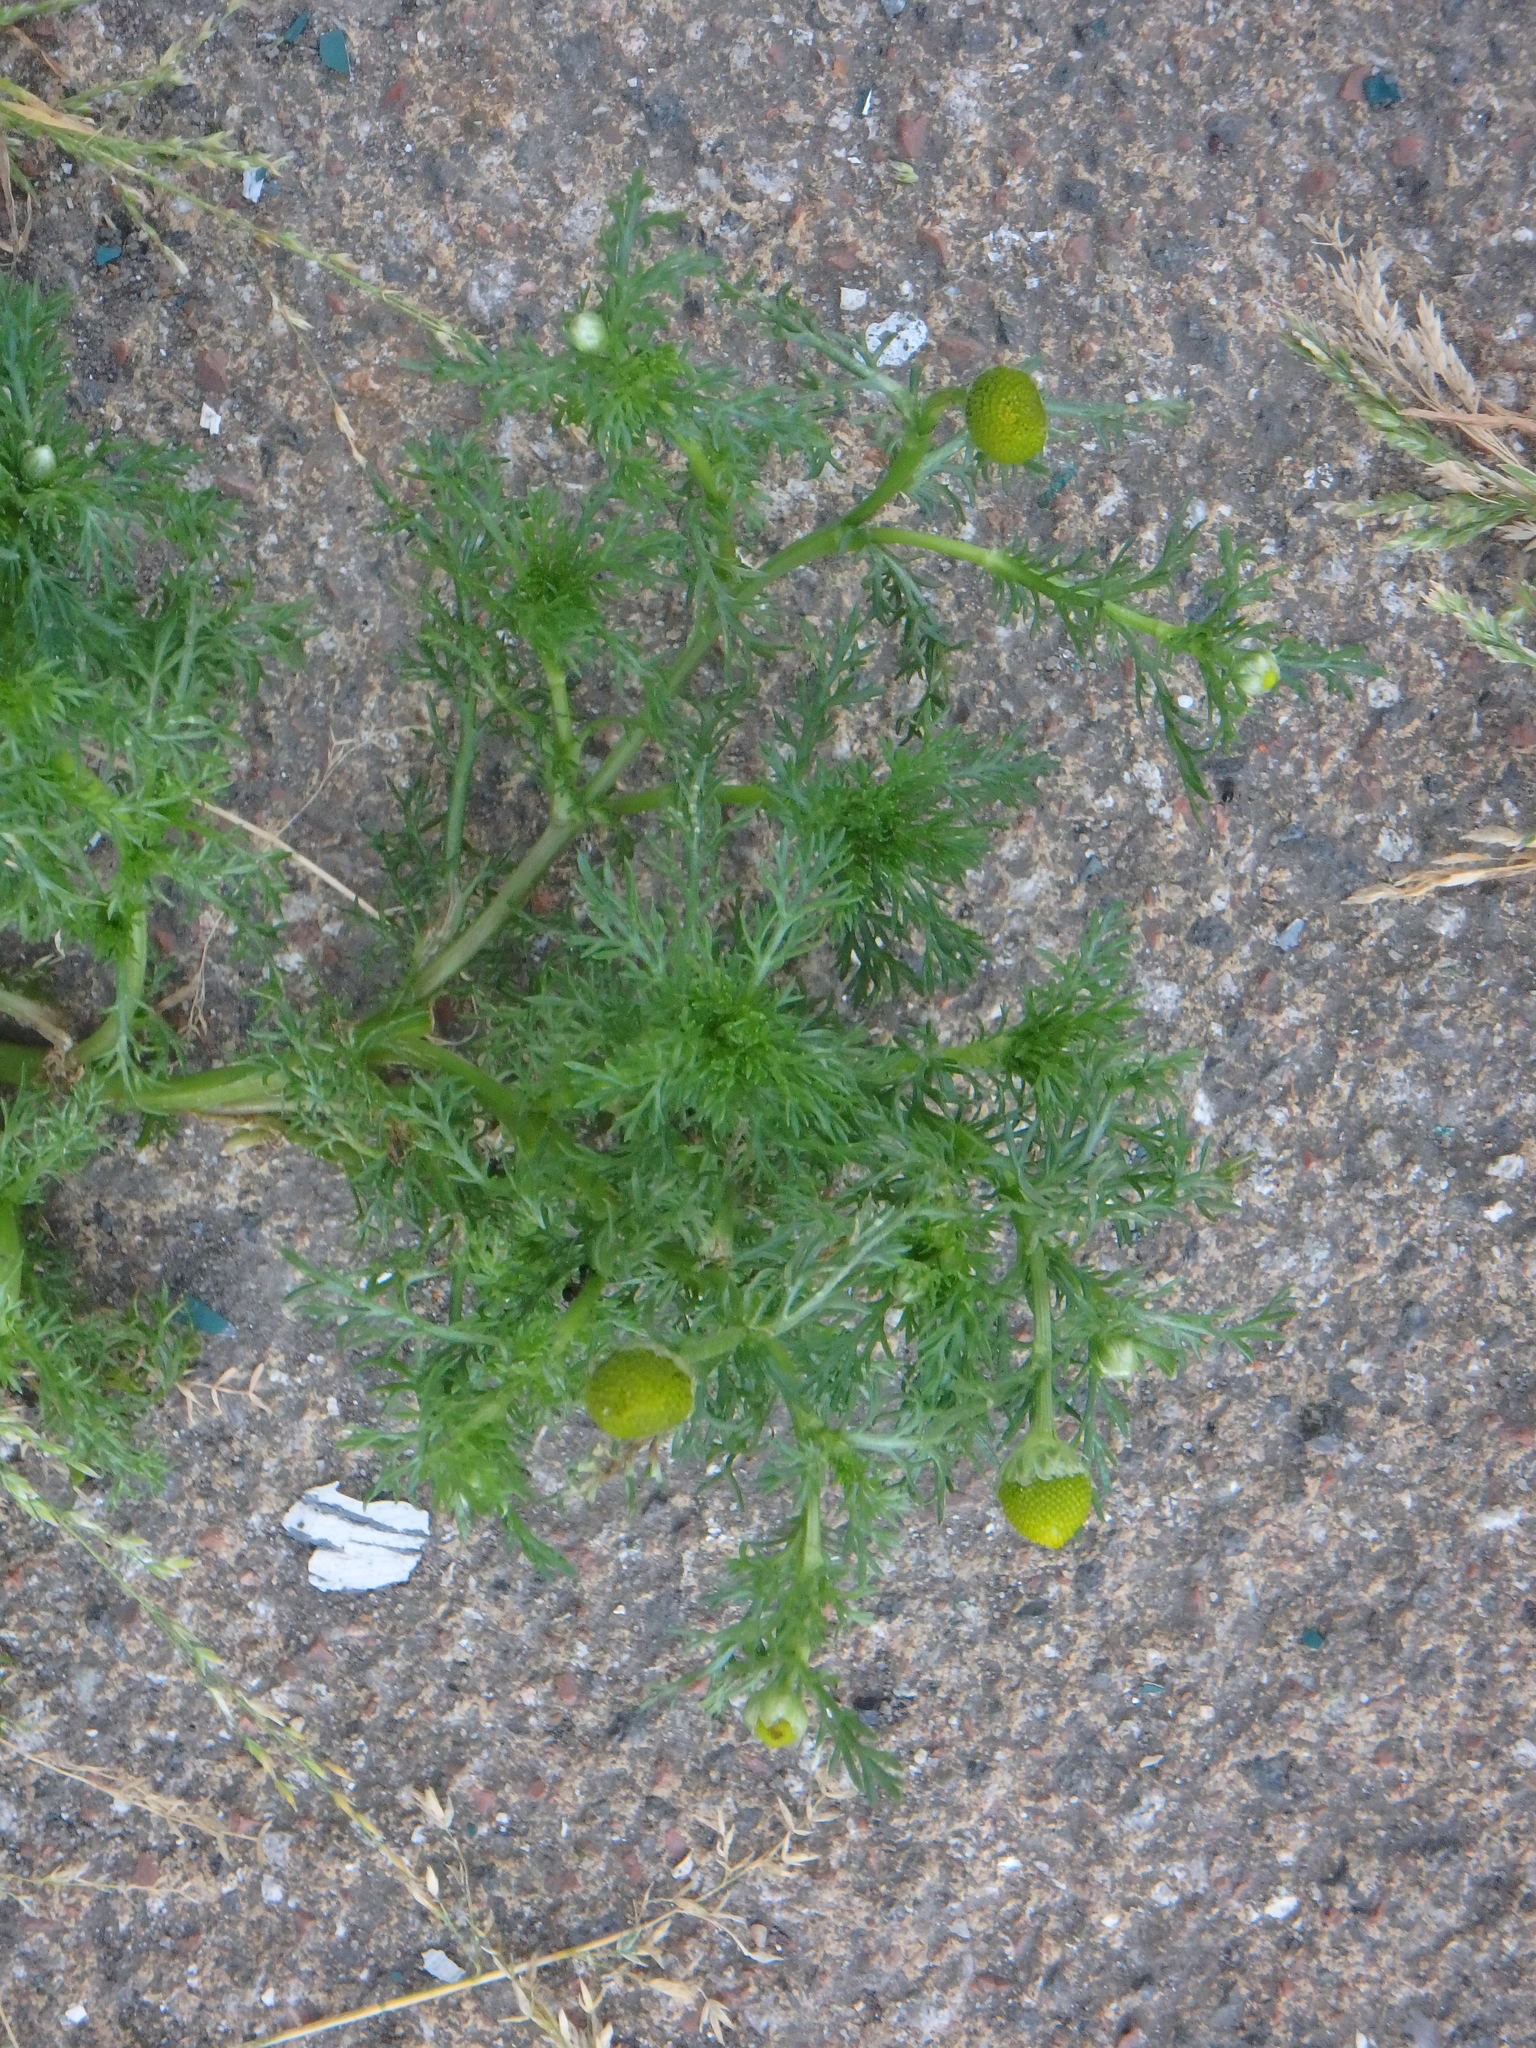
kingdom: Plantae
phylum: Tracheophyta
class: Magnoliopsida
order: Asterales
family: Asteraceae
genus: Matricaria
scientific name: Matricaria discoidea
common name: Disc mayweed
